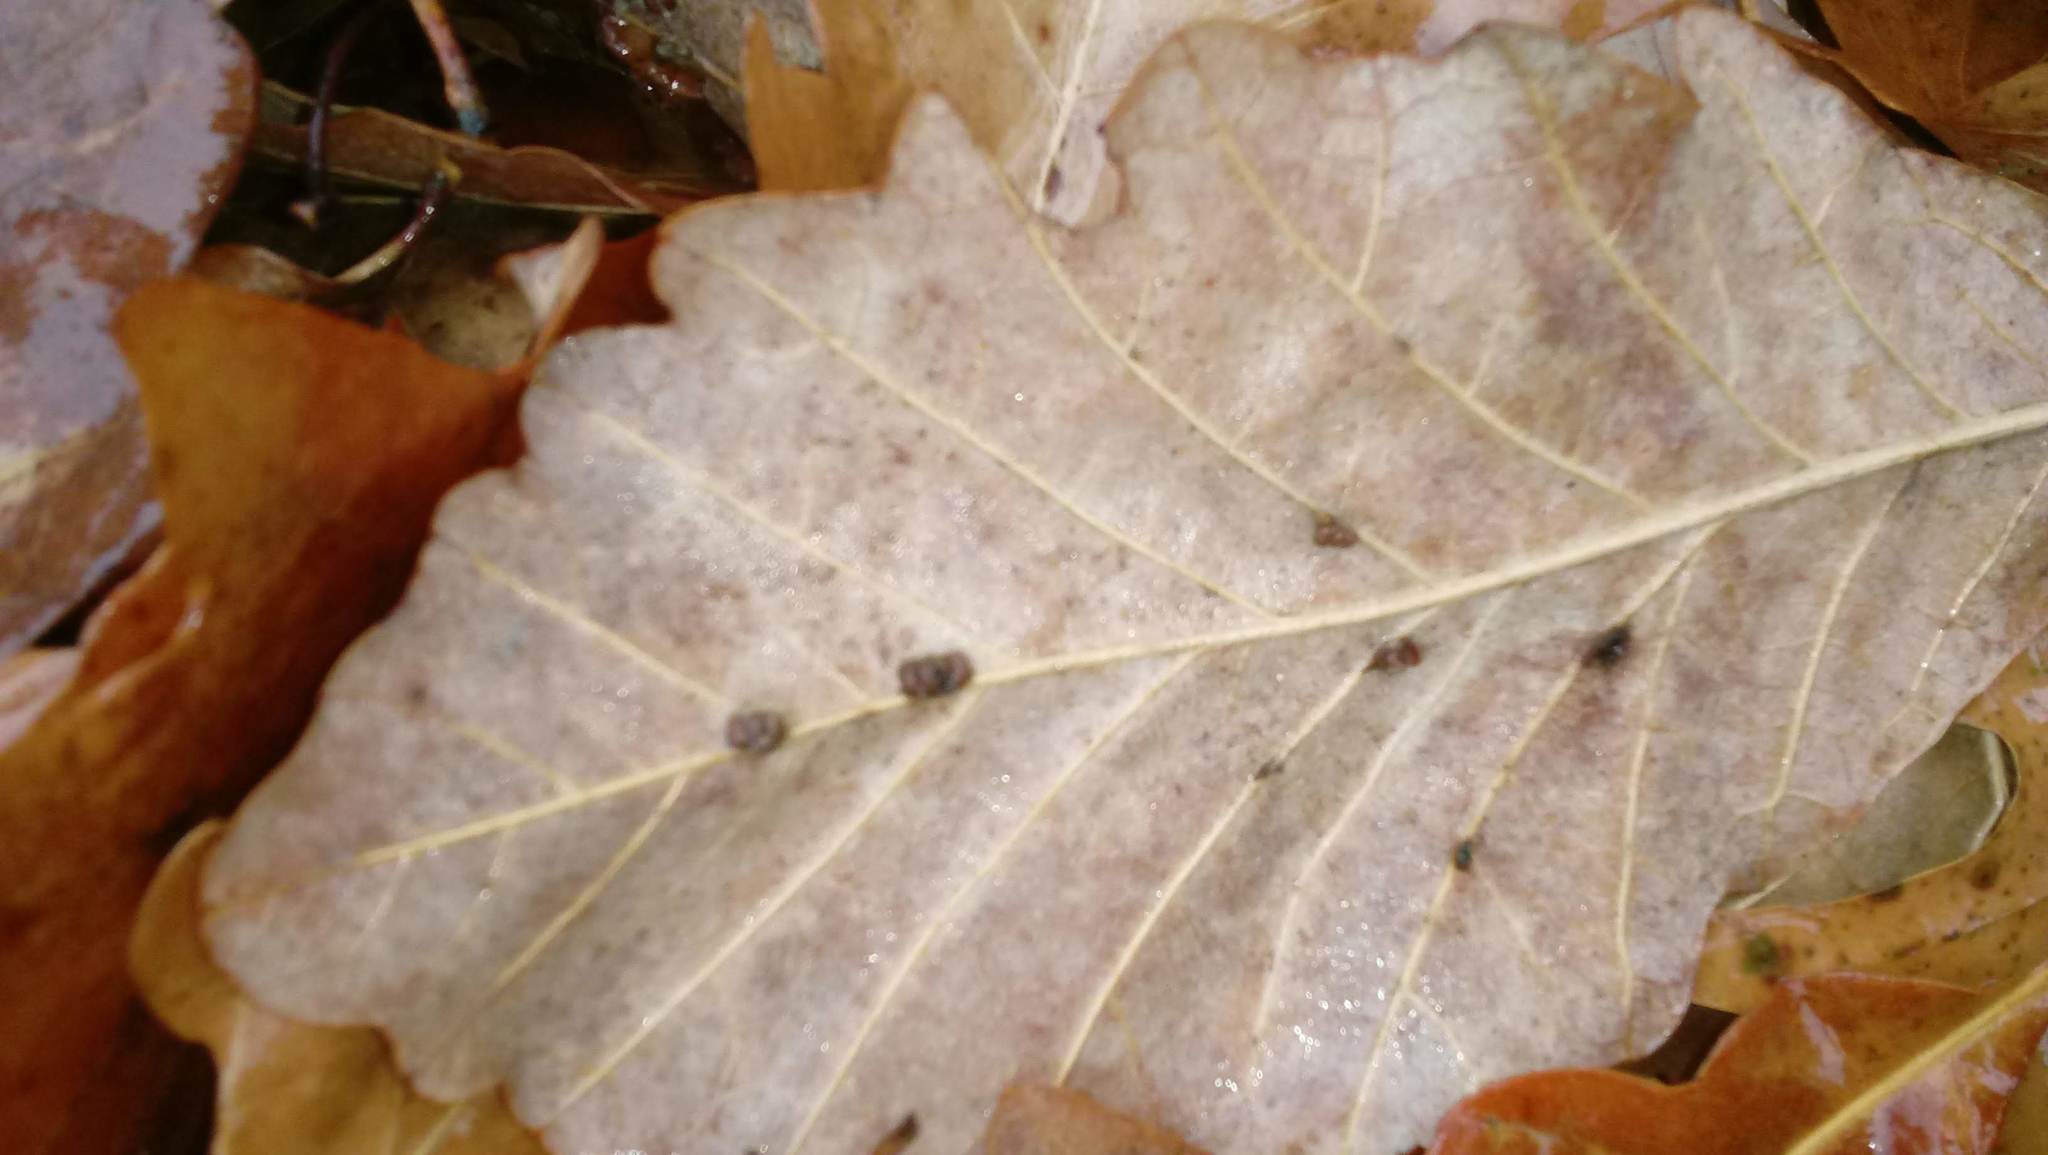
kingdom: Animalia
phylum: Arthropoda
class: Insecta
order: Hymenoptera
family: Cynipidae
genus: Andricus
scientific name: Andricus Druon ignotum
